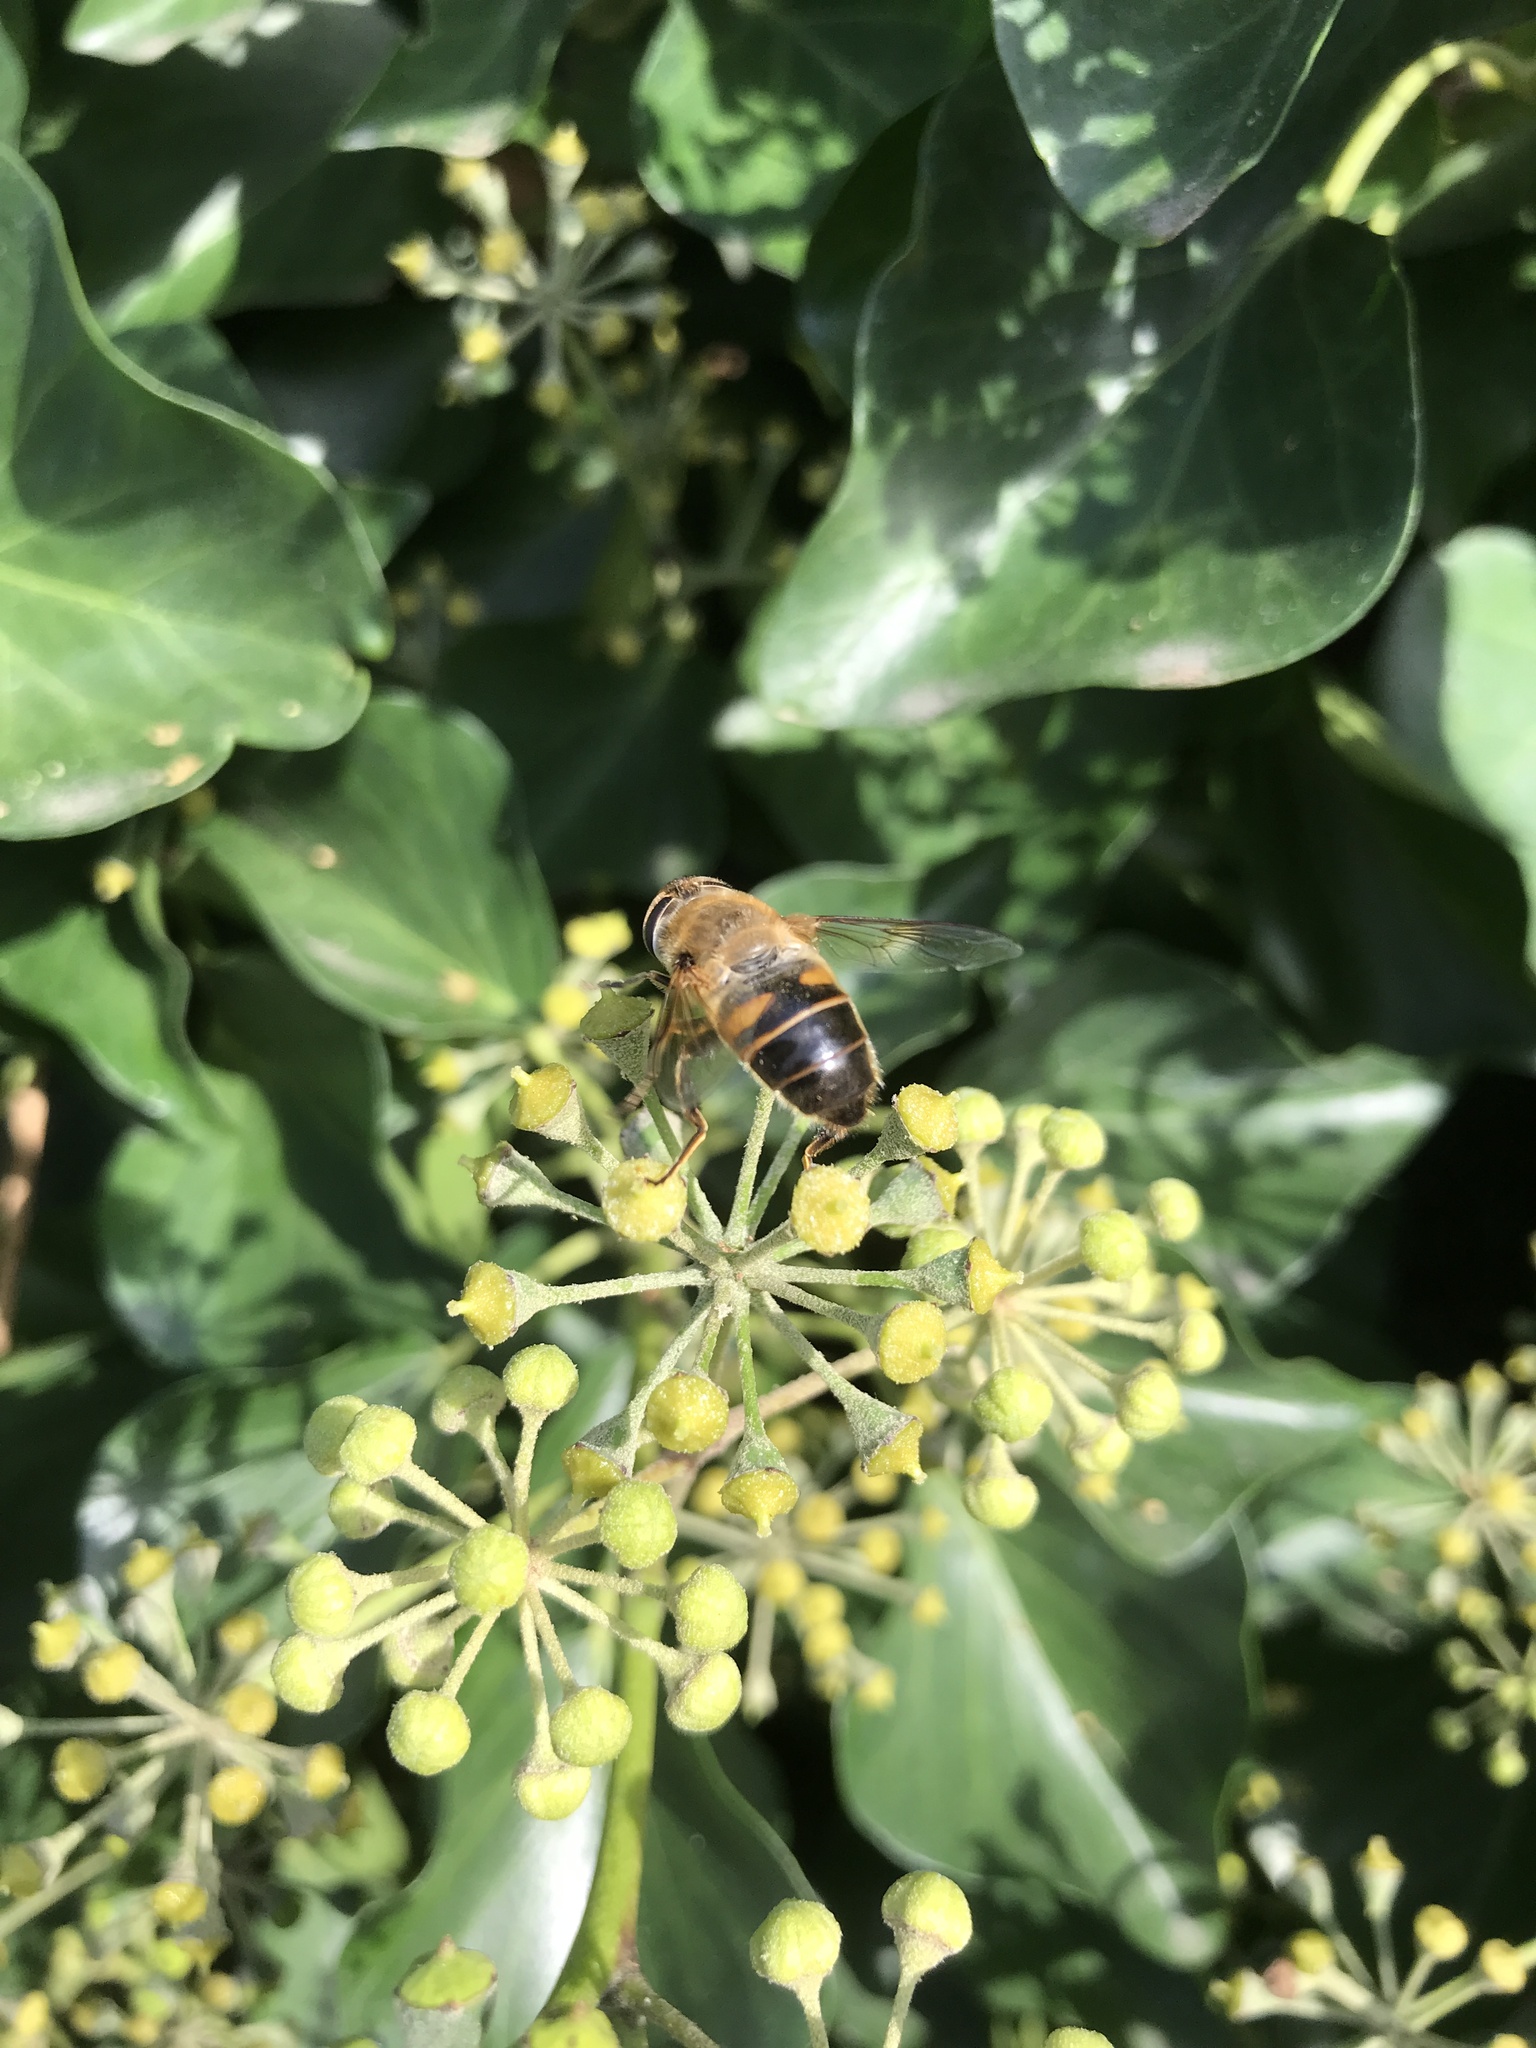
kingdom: Animalia
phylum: Arthropoda
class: Insecta
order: Diptera
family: Syrphidae
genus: Eristalis
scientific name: Eristalis tenax
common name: Drone fly
